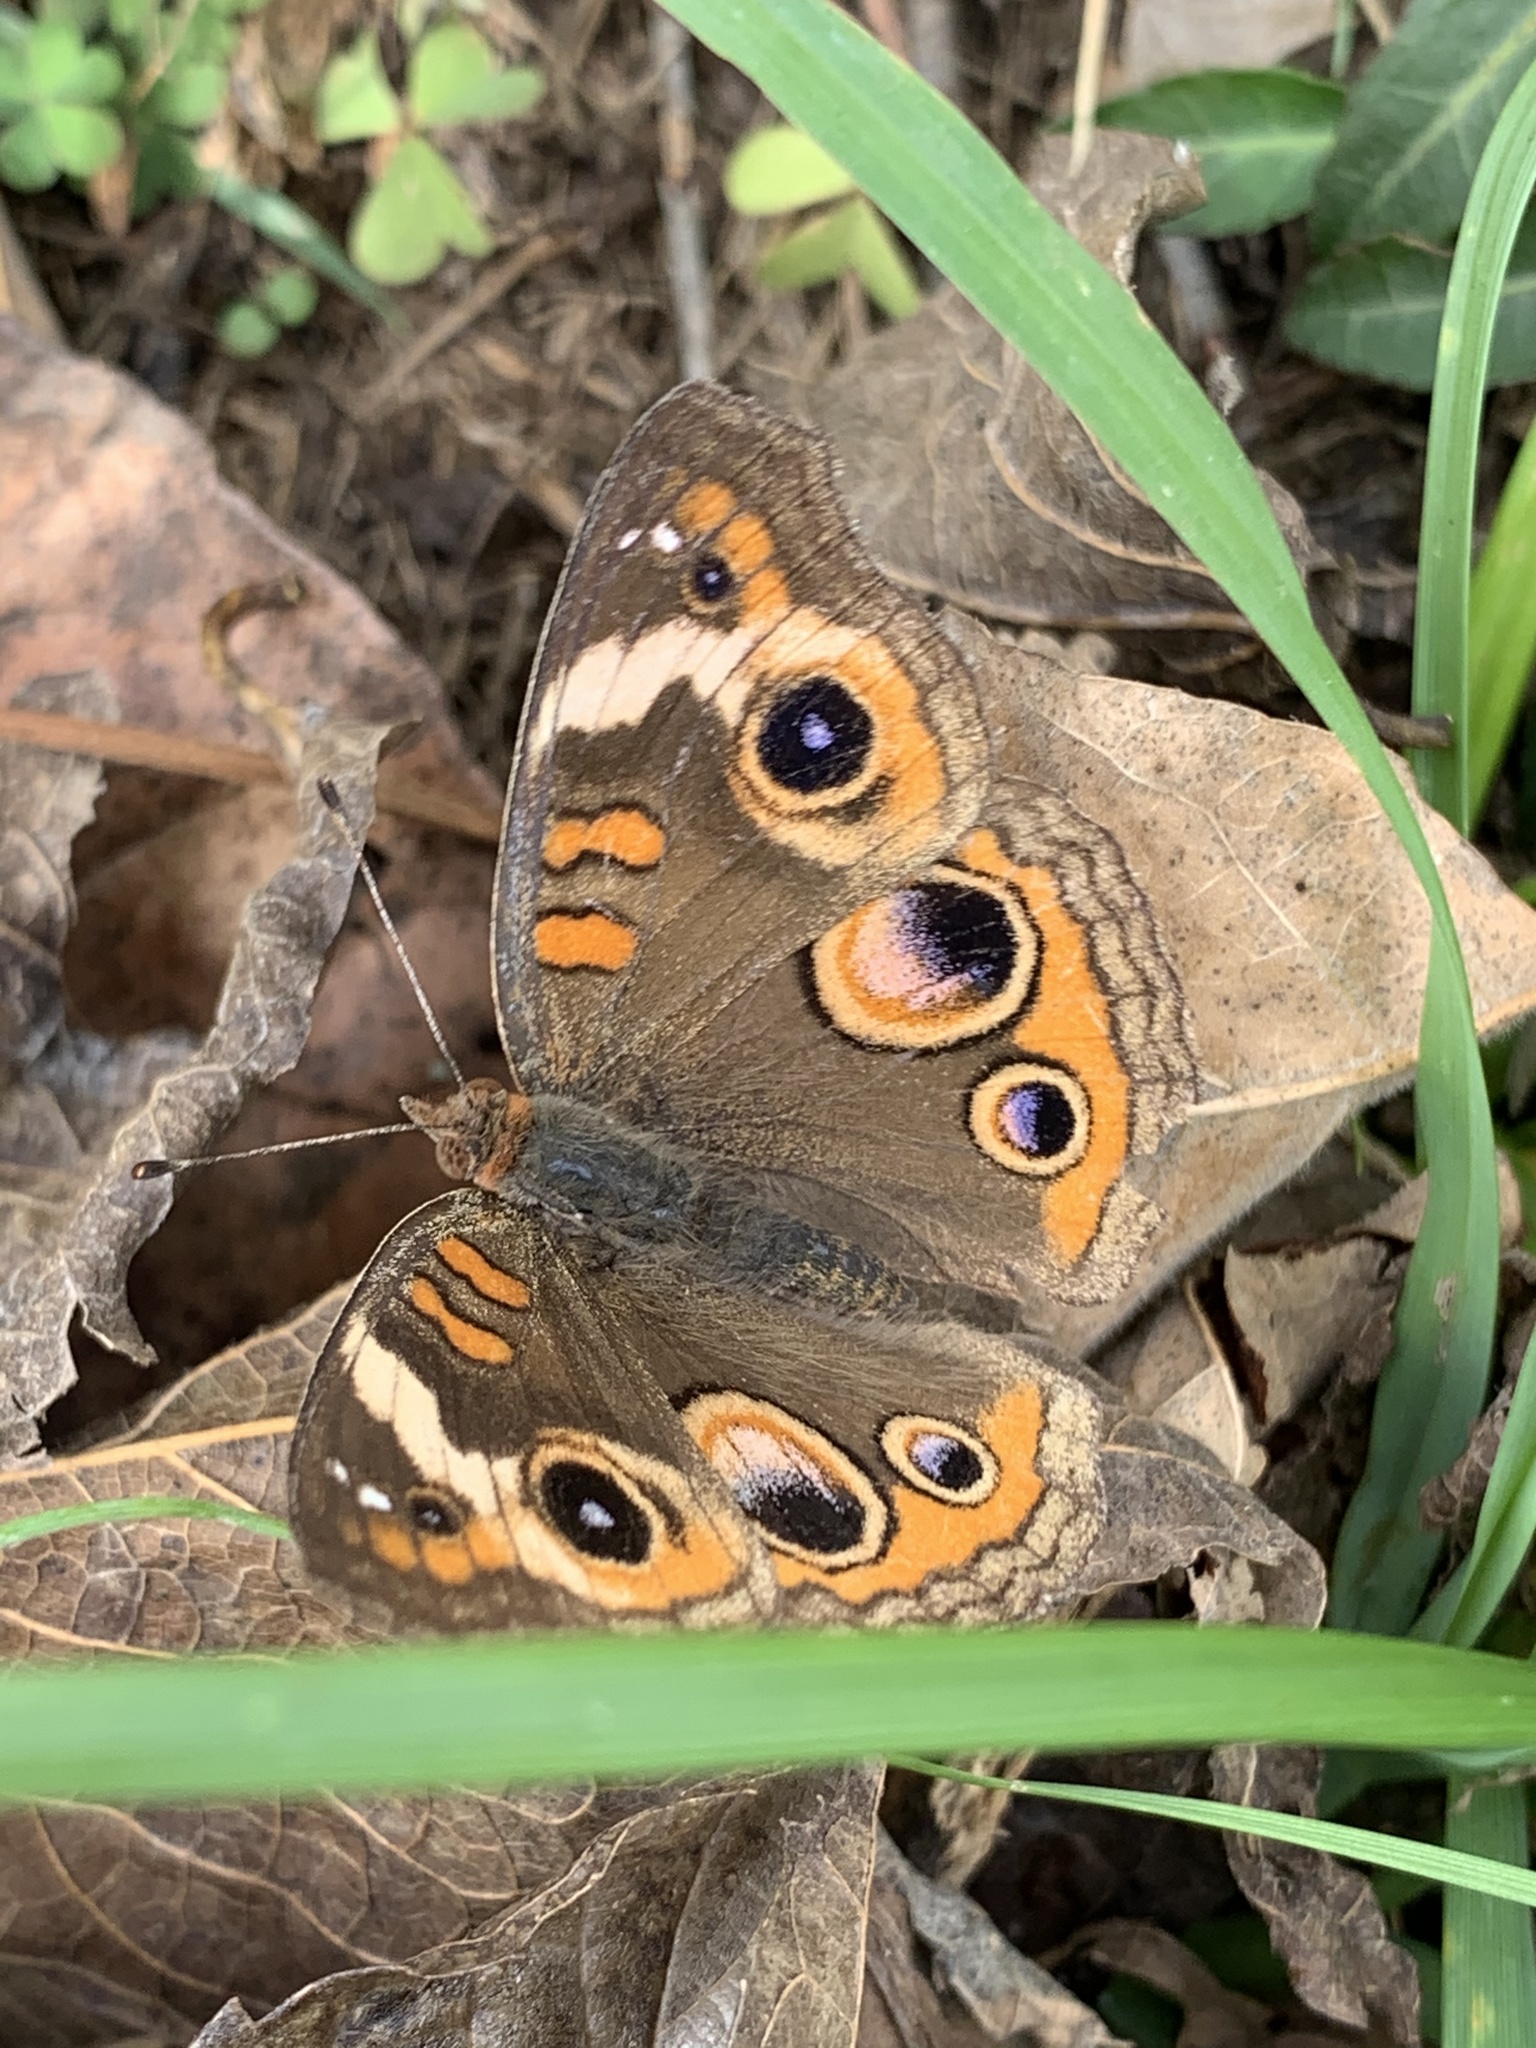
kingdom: Animalia
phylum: Arthropoda
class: Insecta
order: Lepidoptera
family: Nymphalidae
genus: Junonia
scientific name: Junonia coenia
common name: Common buckeye
